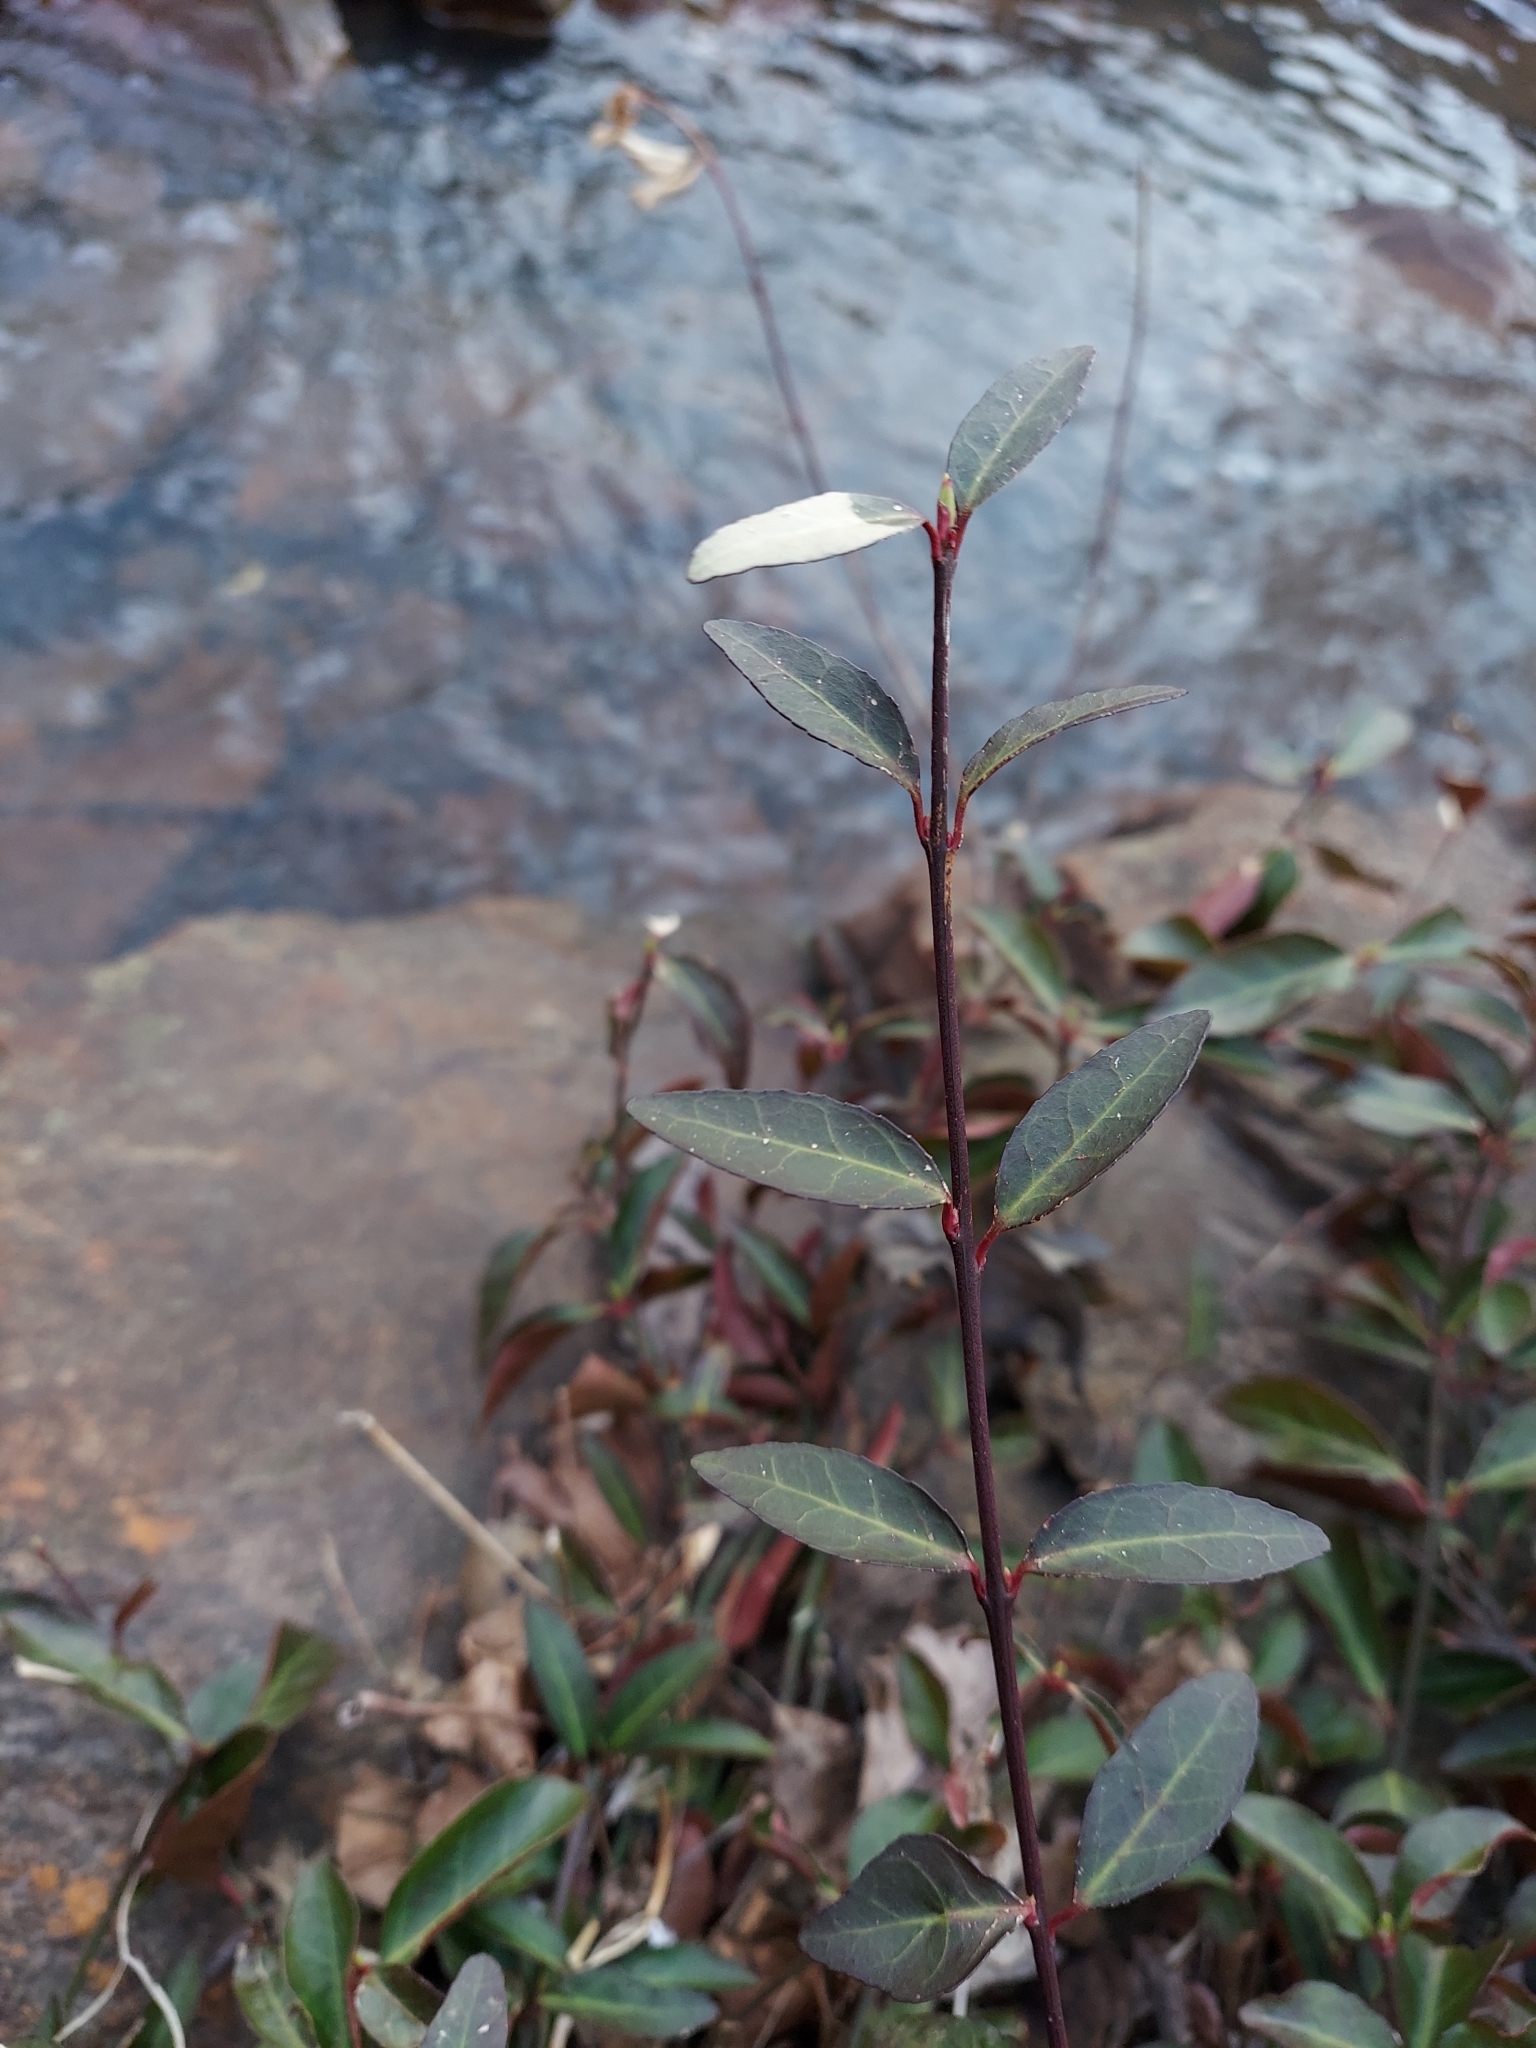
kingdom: Plantae
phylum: Tracheophyta
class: Magnoliopsida
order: Celastrales
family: Celastraceae
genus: Euonymus
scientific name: Euonymus fortunei
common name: Climbing euonymus
